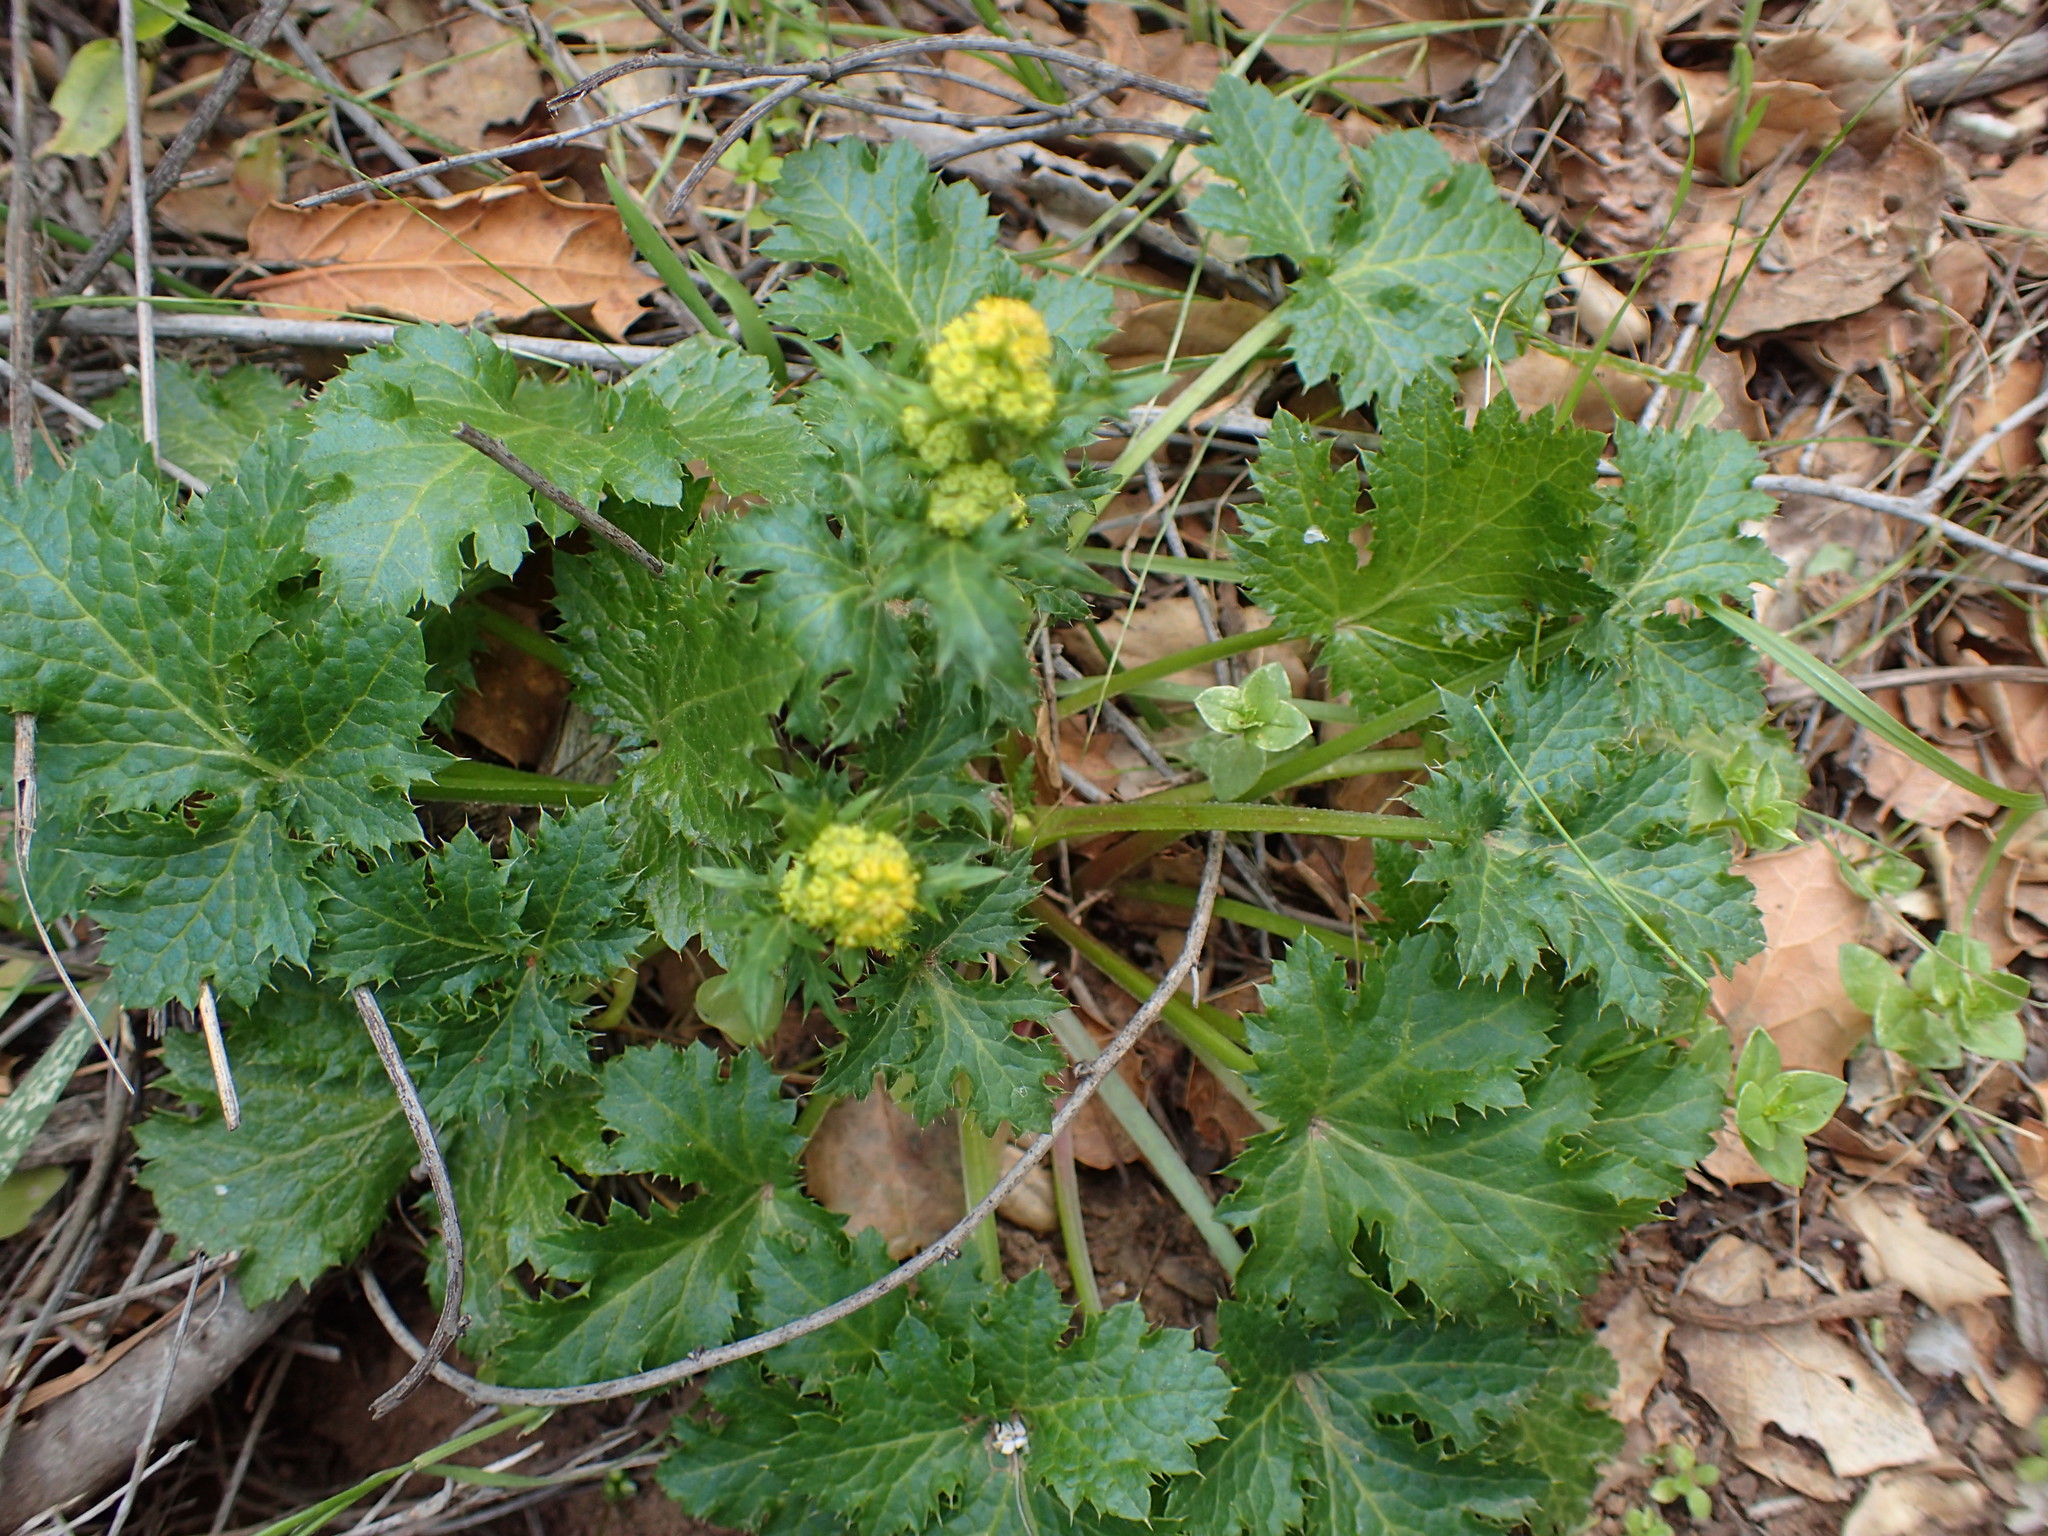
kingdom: Plantae
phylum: Tracheophyta
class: Magnoliopsida
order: Apiales
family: Apiaceae
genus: Sanicula
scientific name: Sanicula crassicaulis
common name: Western snakeroot
